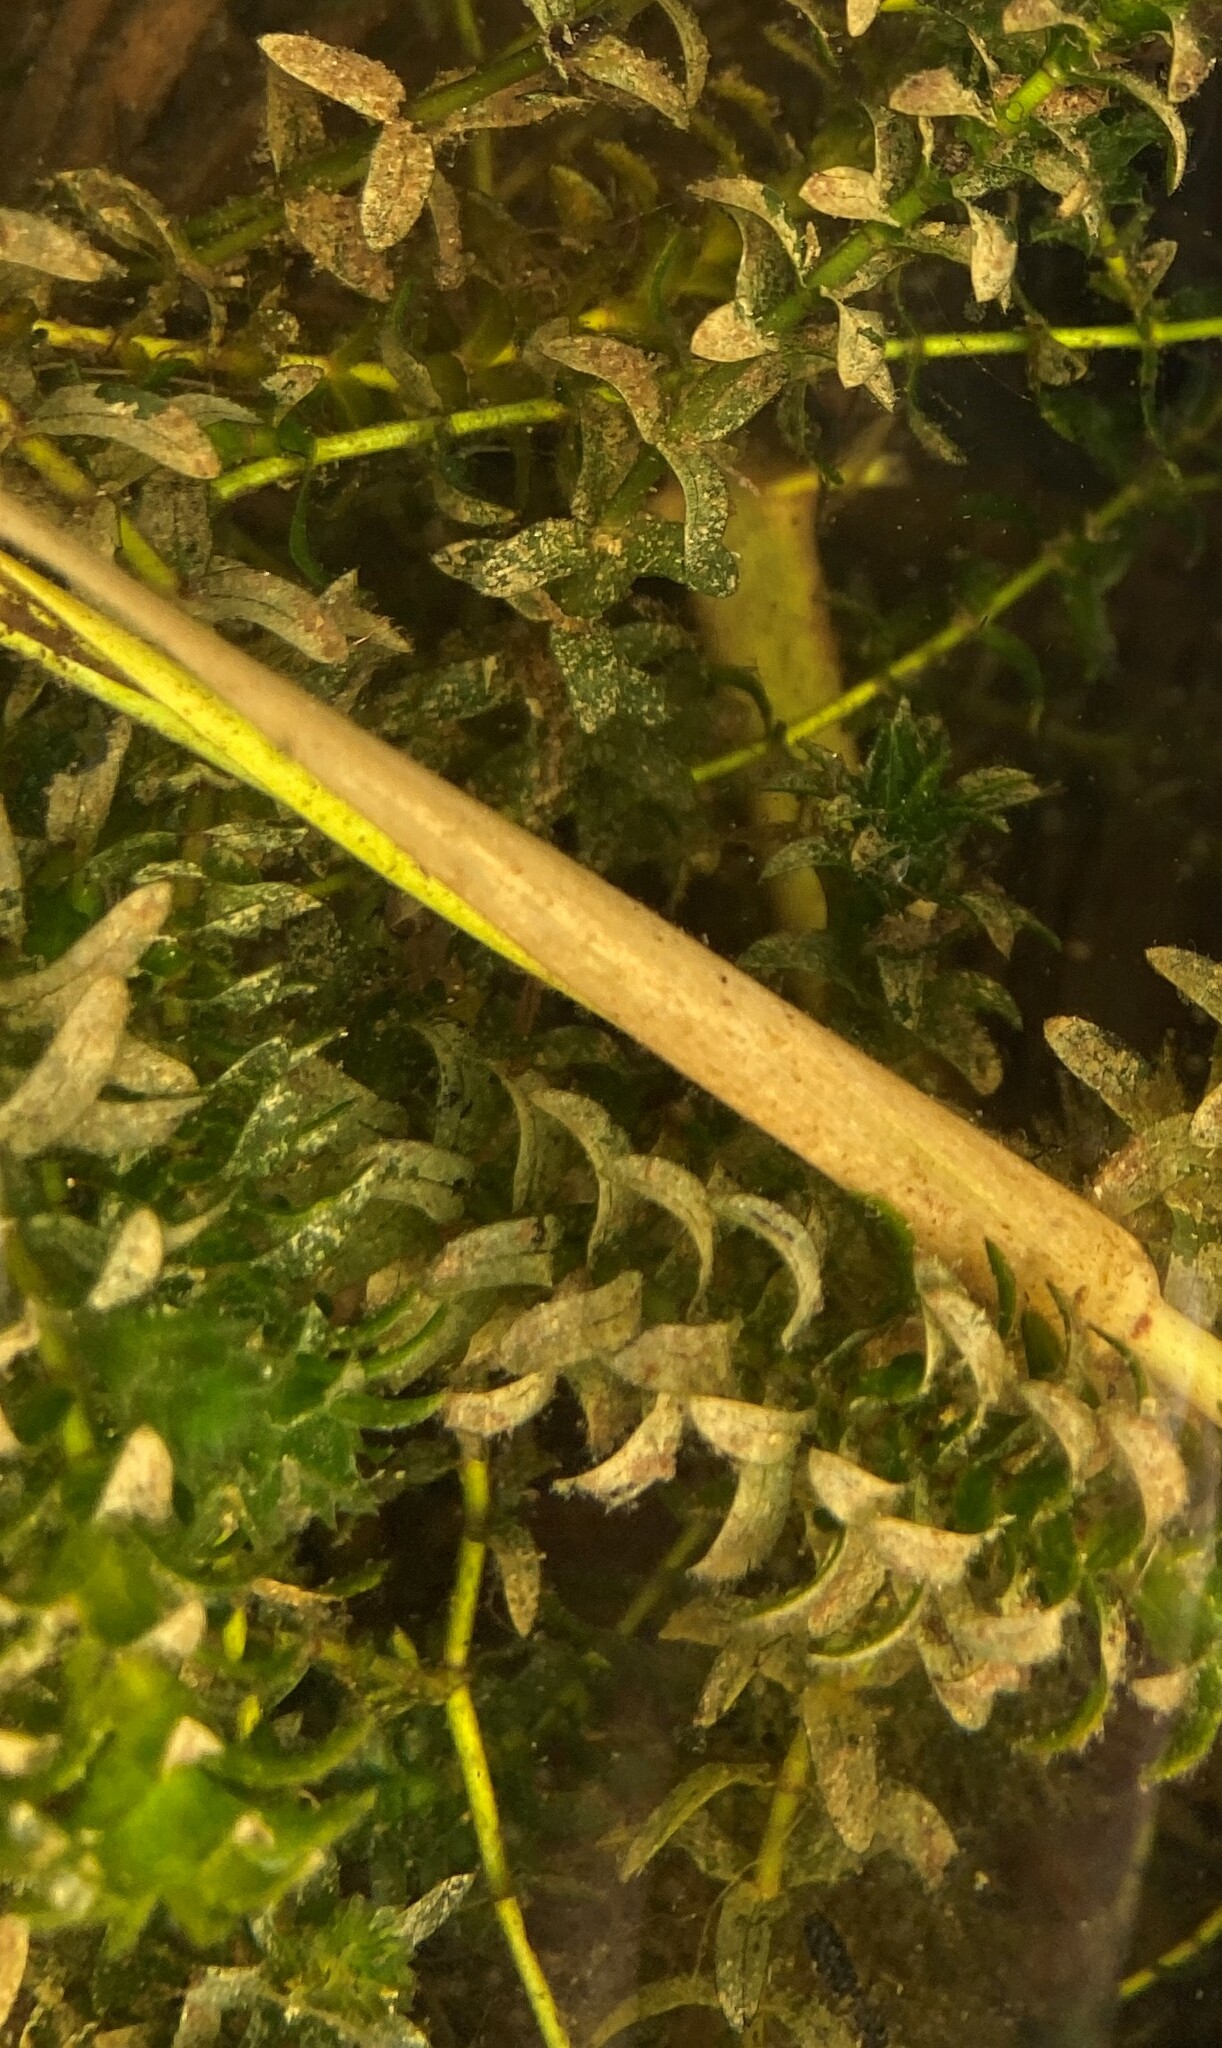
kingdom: Plantae
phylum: Tracheophyta
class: Liliopsida
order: Alismatales
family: Hydrocharitaceae
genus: Elodea
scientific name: Elodea canadensis
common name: Canadian waterweed
